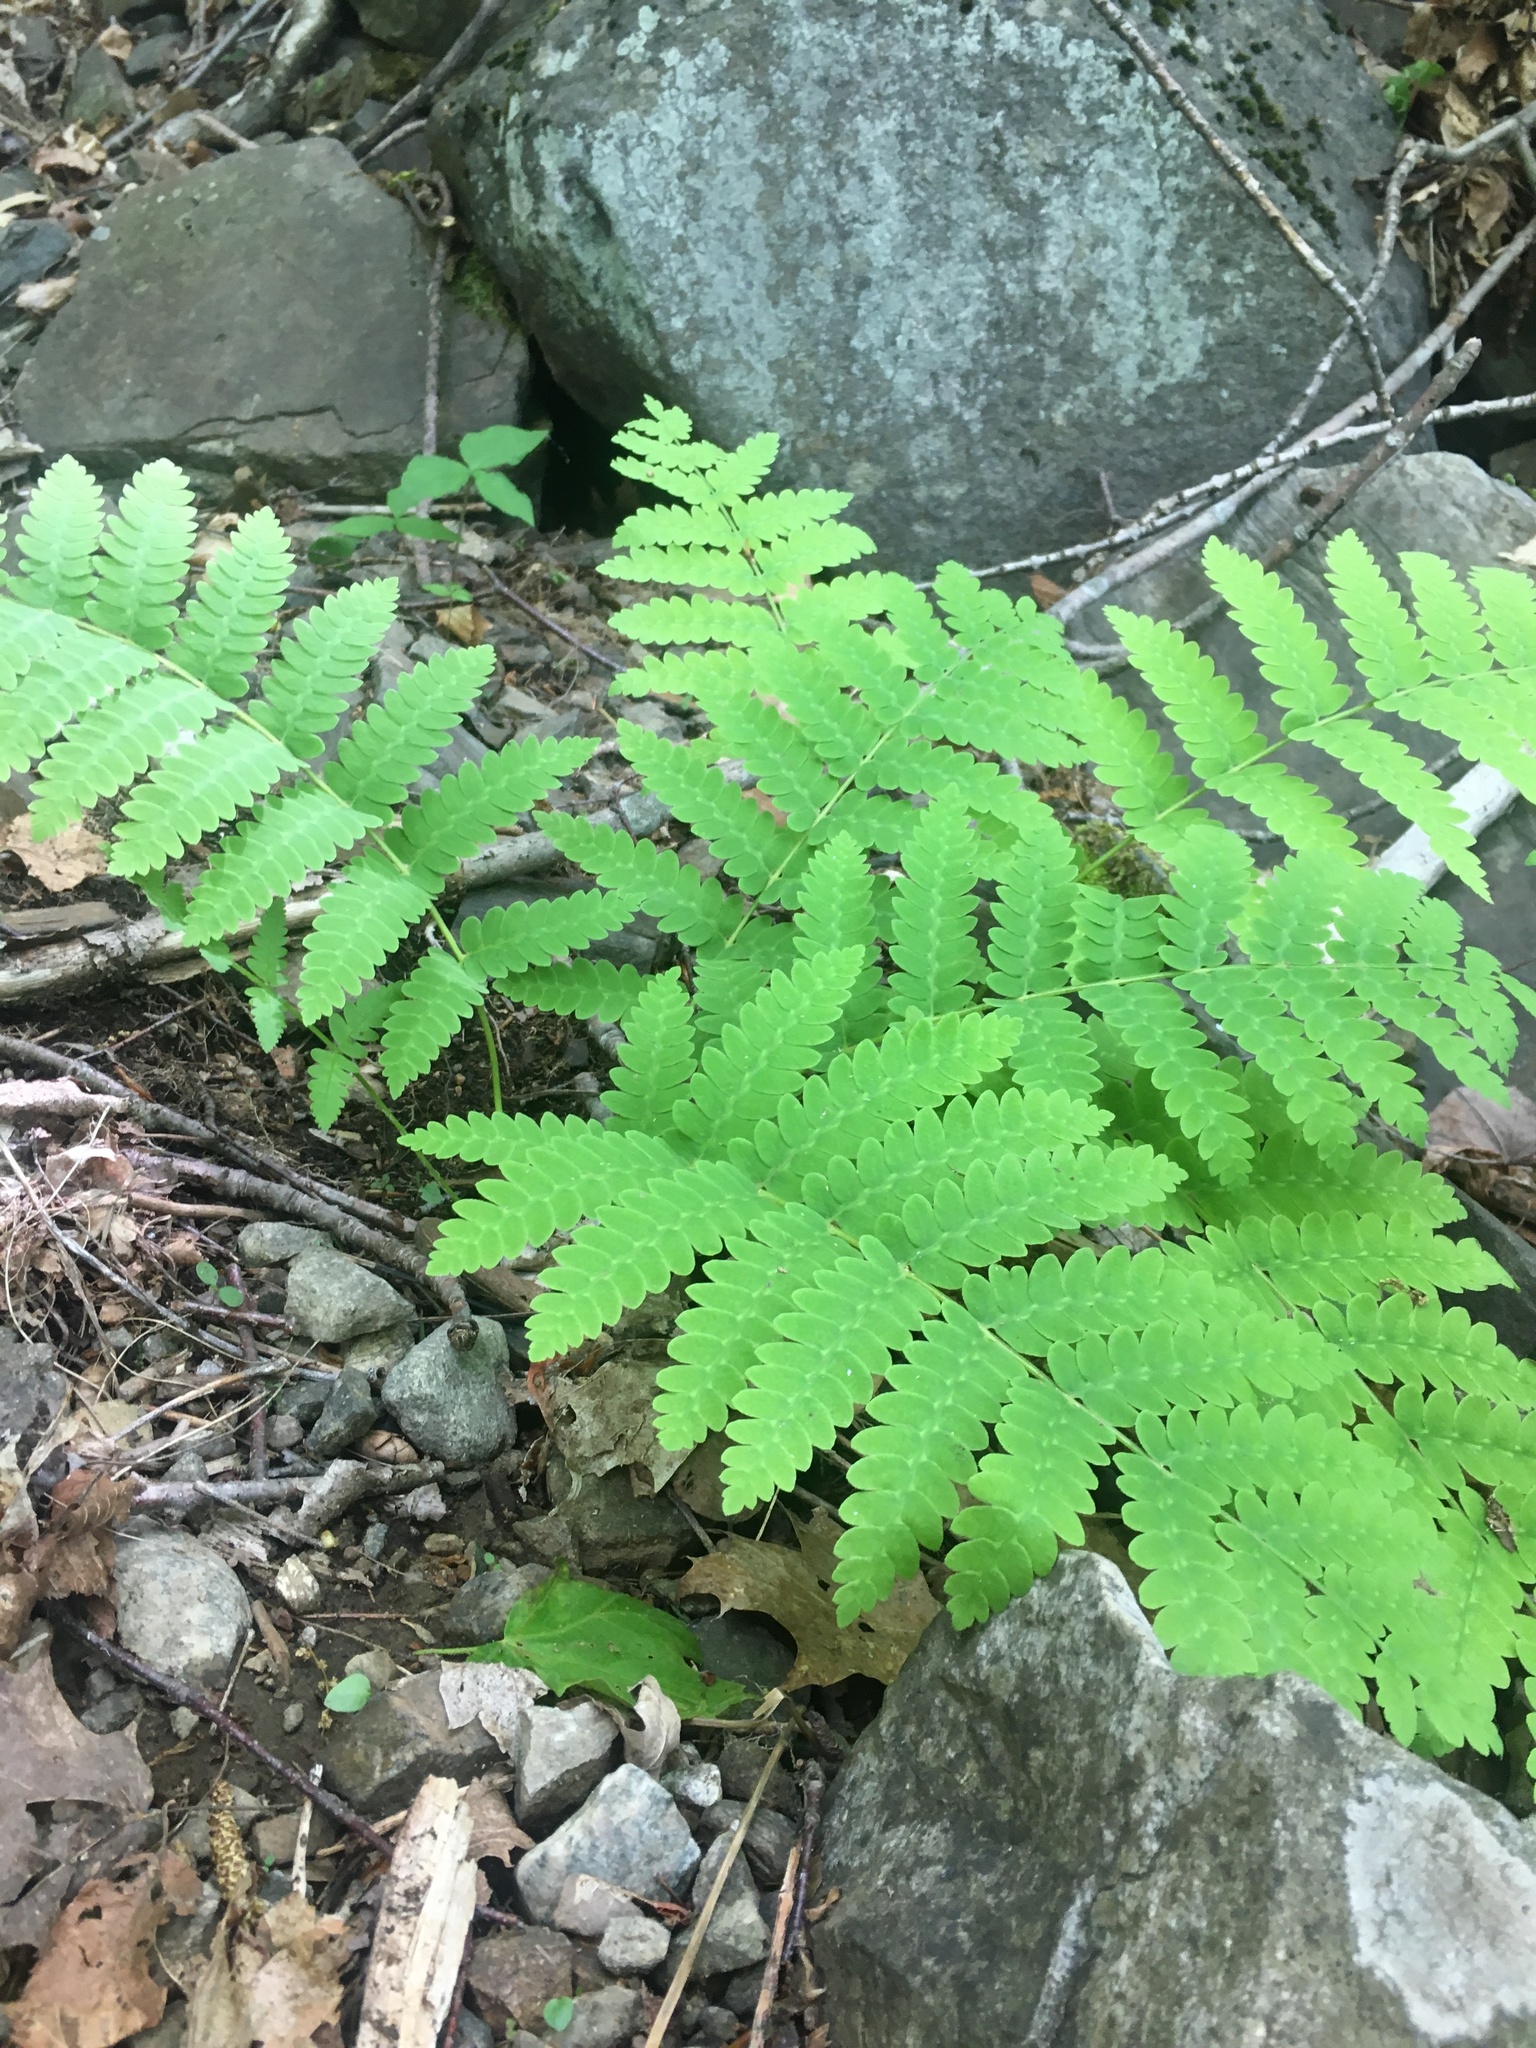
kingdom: Plantae
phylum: Tracheophyta
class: Polypodiopsida
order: Osmundales
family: Osmundaceae
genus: Claytosmunda
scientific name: Claytosmunda claytoniana
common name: Clayton's fern
